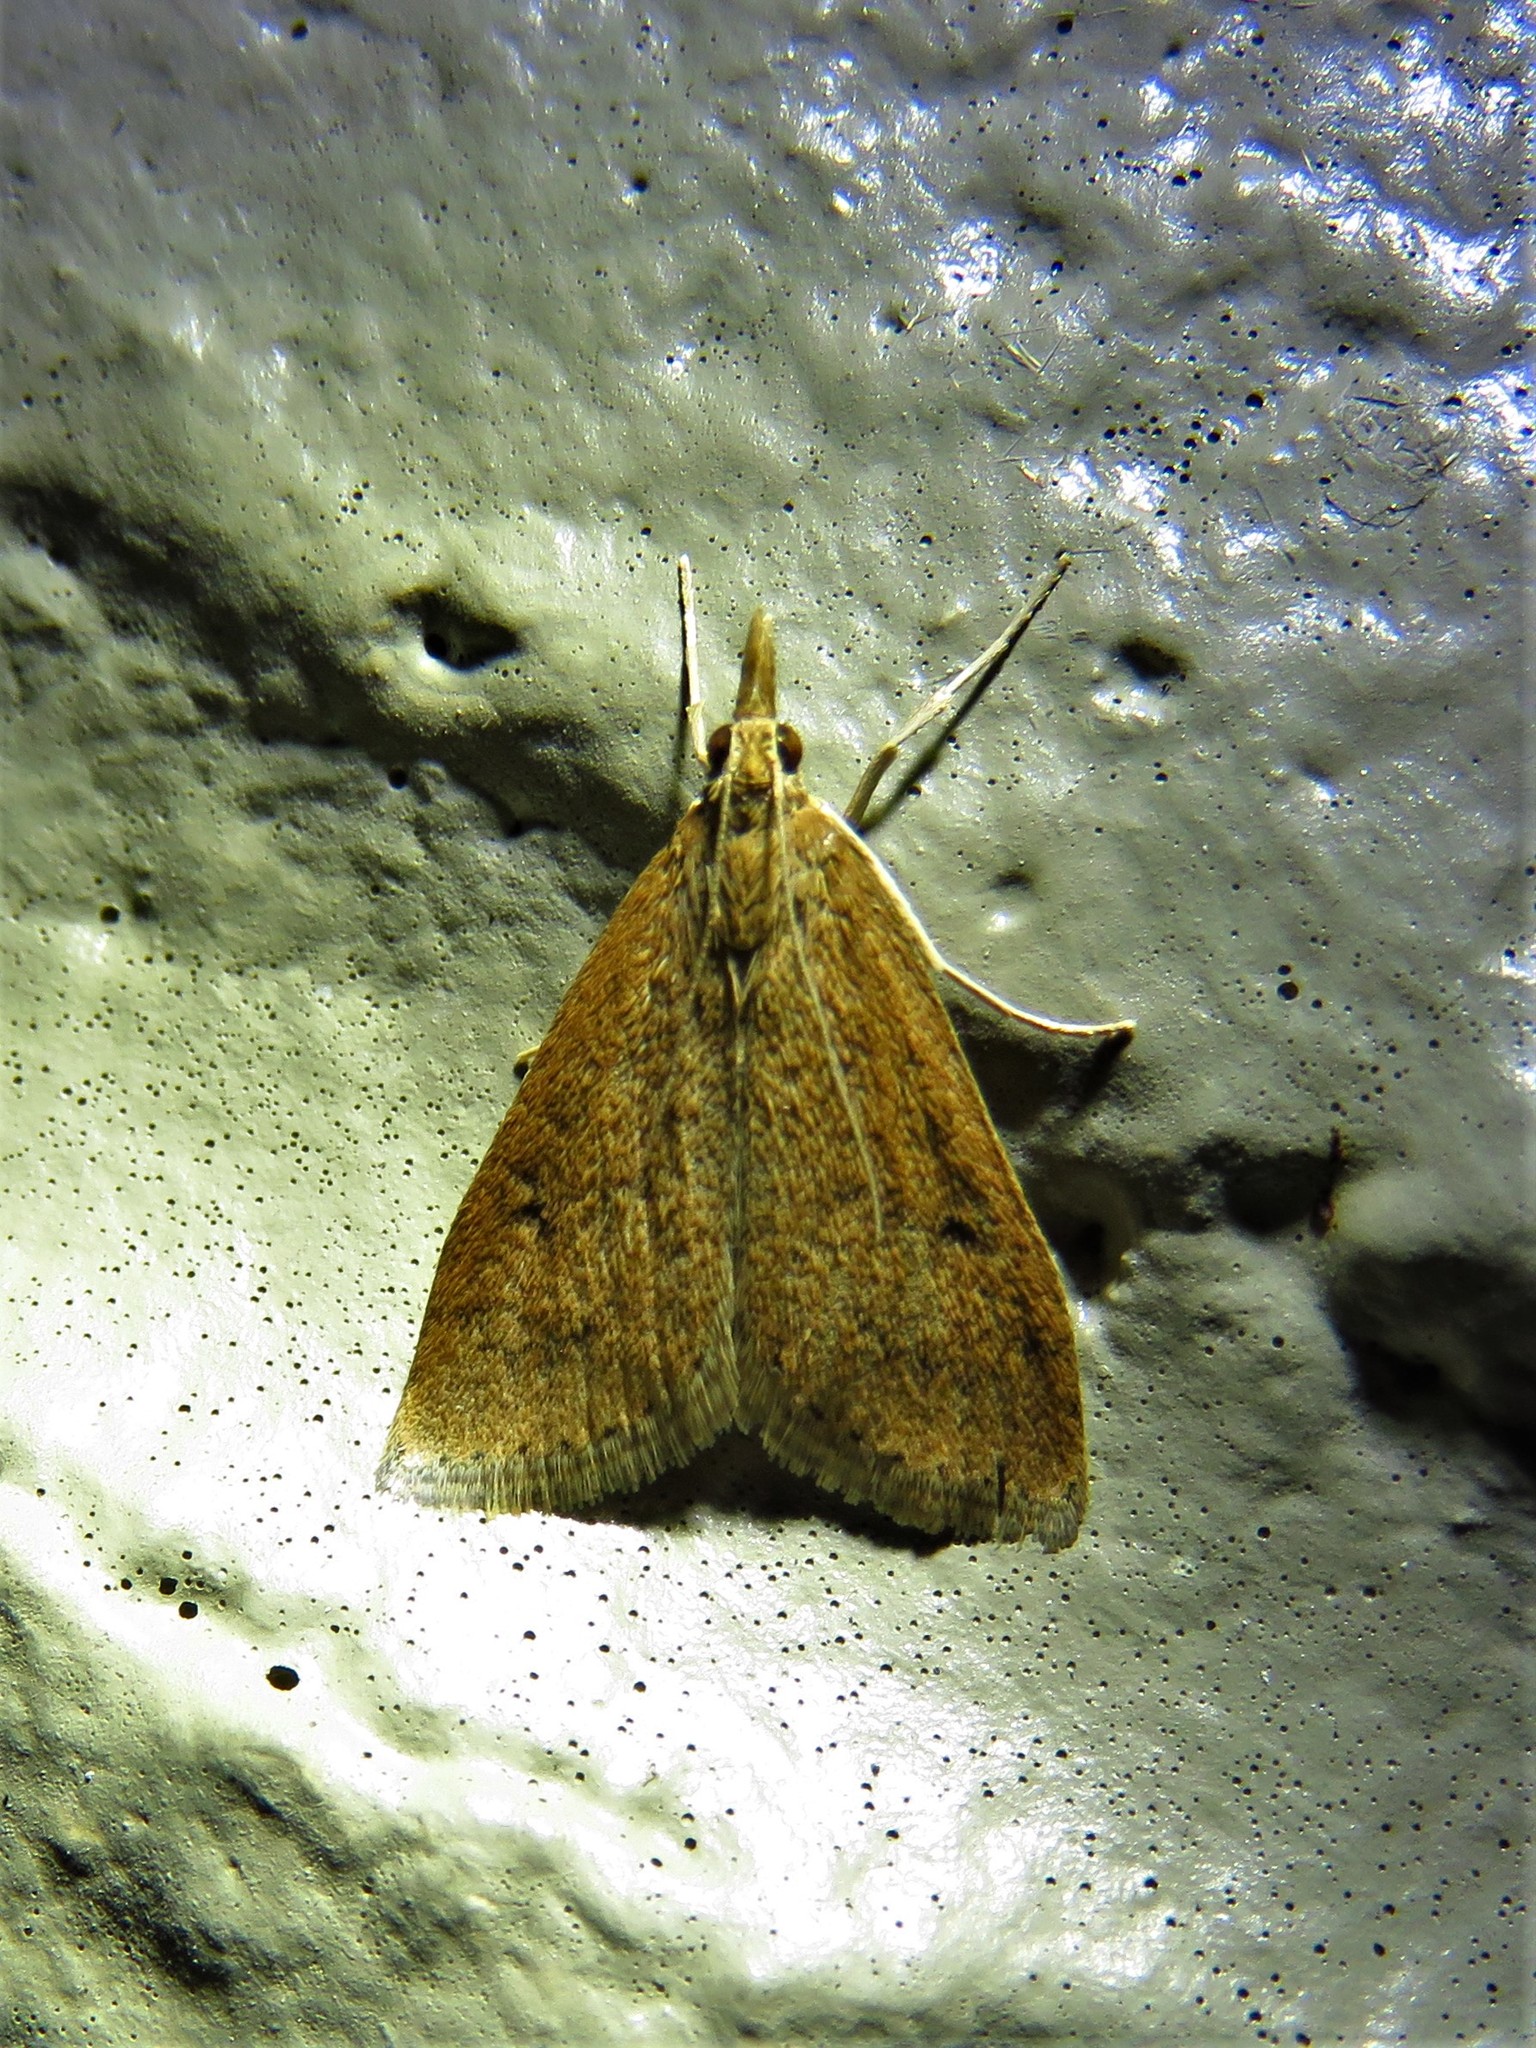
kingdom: Animalia
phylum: Arthropoda
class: Insecta
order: Lepidoptera
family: Crambidae
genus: Udea
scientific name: Udea rubigalis
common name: Celery leaftier moth
